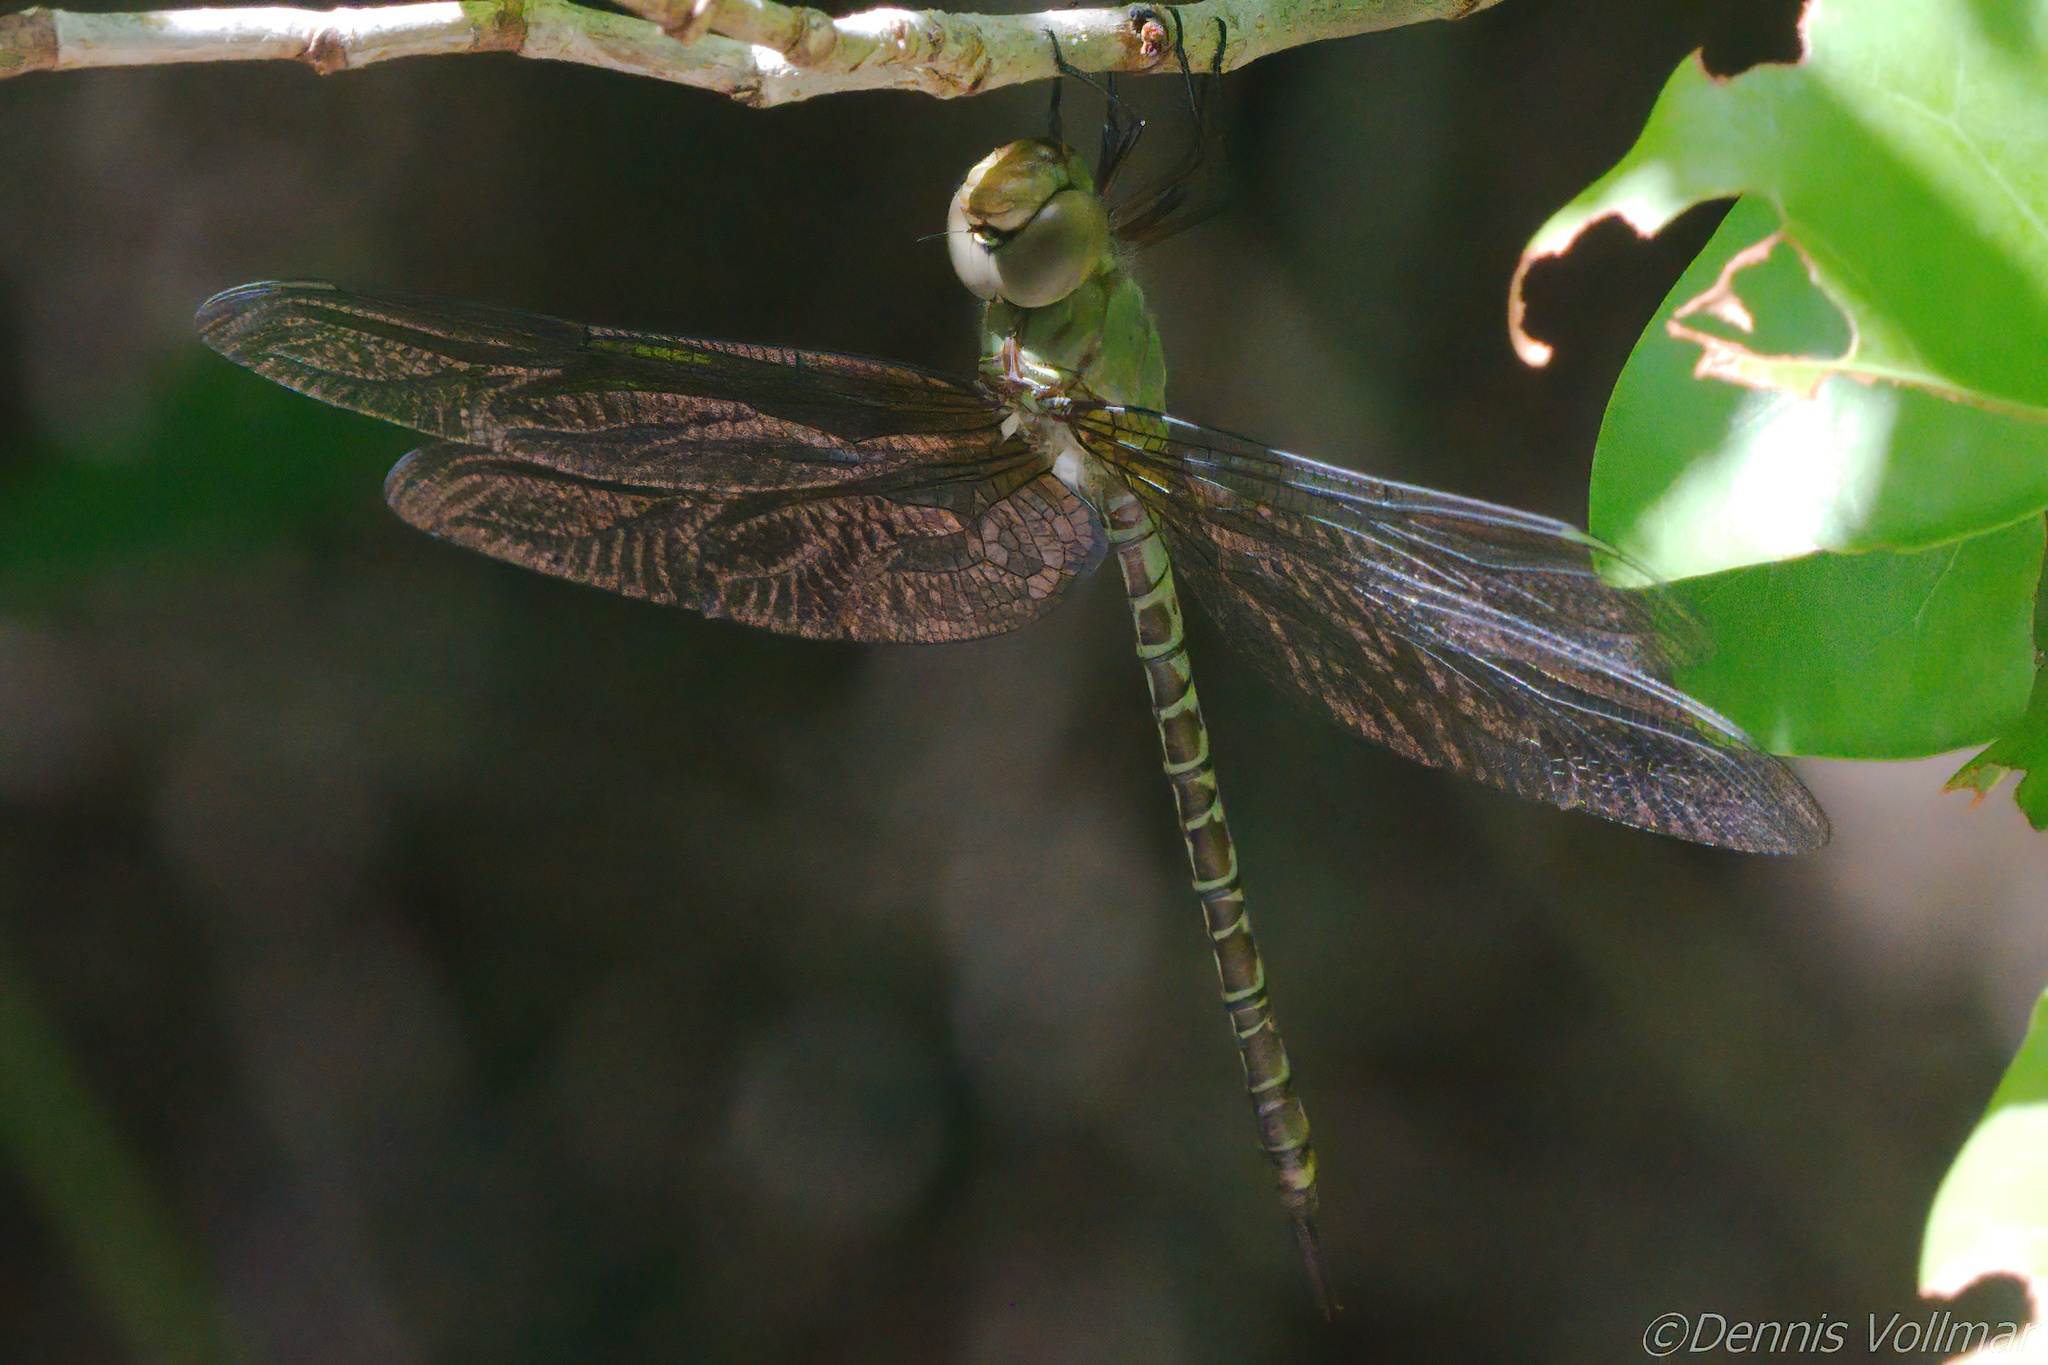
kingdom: Animalia
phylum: Arthropoda
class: Insecta
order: Odonata
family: Aeshnidae
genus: Coryphaeschna
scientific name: Coryphaeschna viriditas
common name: Mangrove darner
